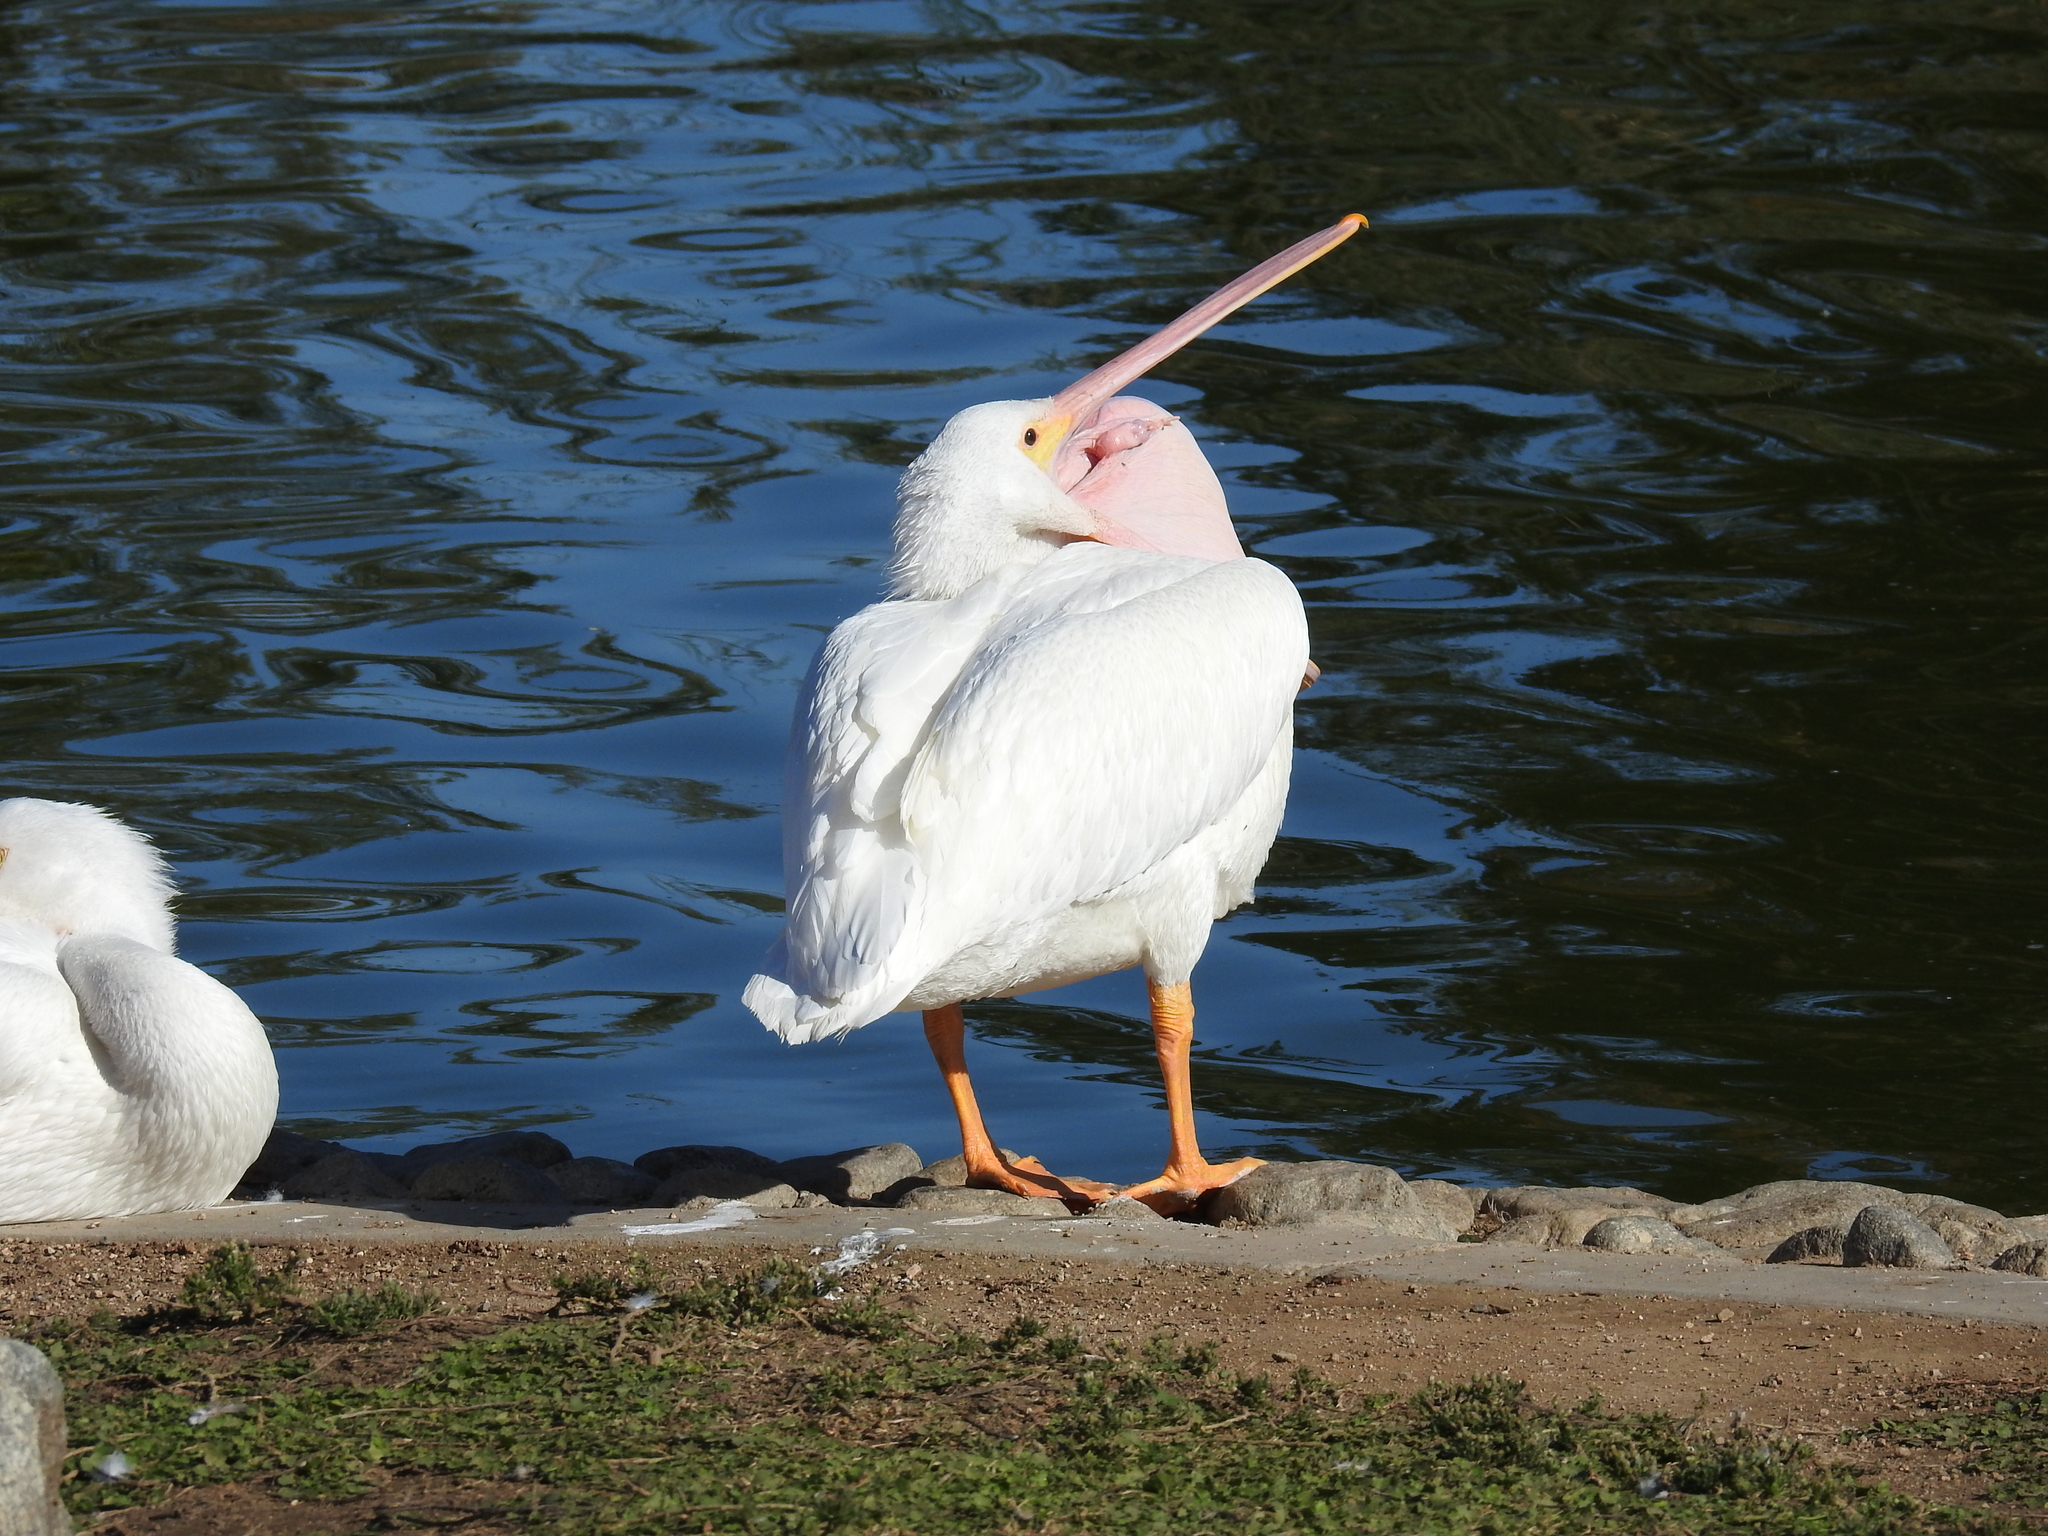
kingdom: Animalia
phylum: Chordata
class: Aves
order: Pelecaniformes
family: Pelecanidae
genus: Pelecanus
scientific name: Pelecanus erythrorhynchos
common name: American white pelican
